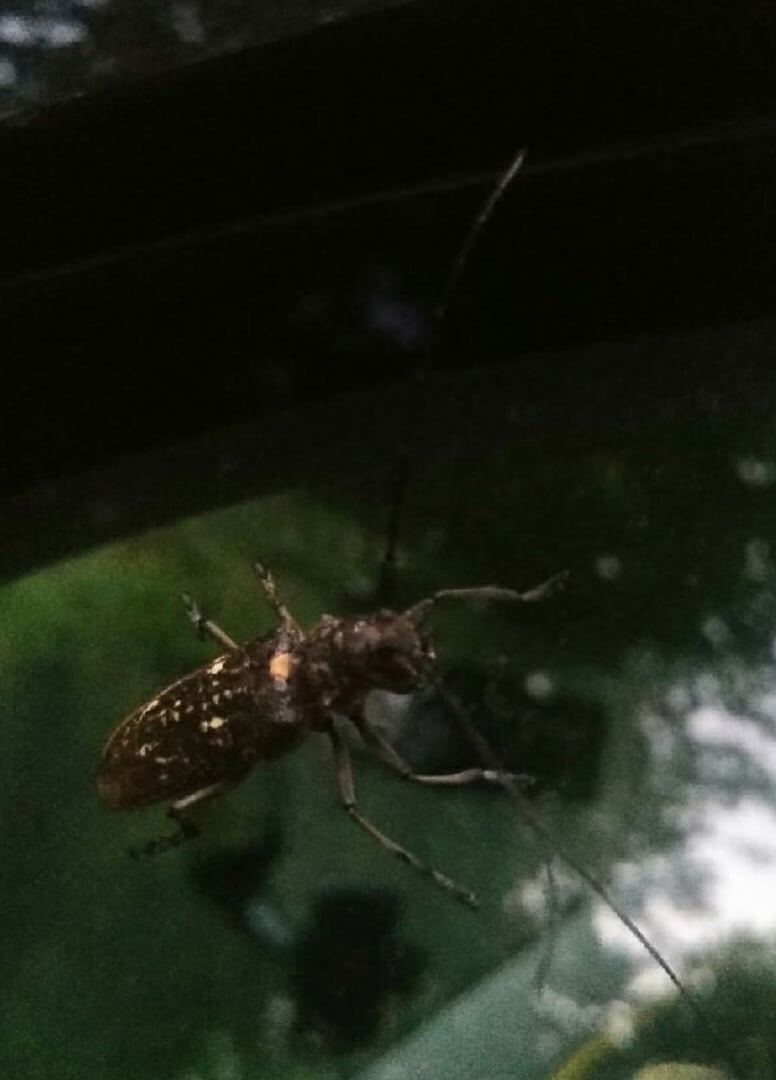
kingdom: Animalia
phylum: Arthropoda
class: Insecta
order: Coleoptera
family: Cerambycidae
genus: Monochamus
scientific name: Monochamus sartor
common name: Pine sawyer
